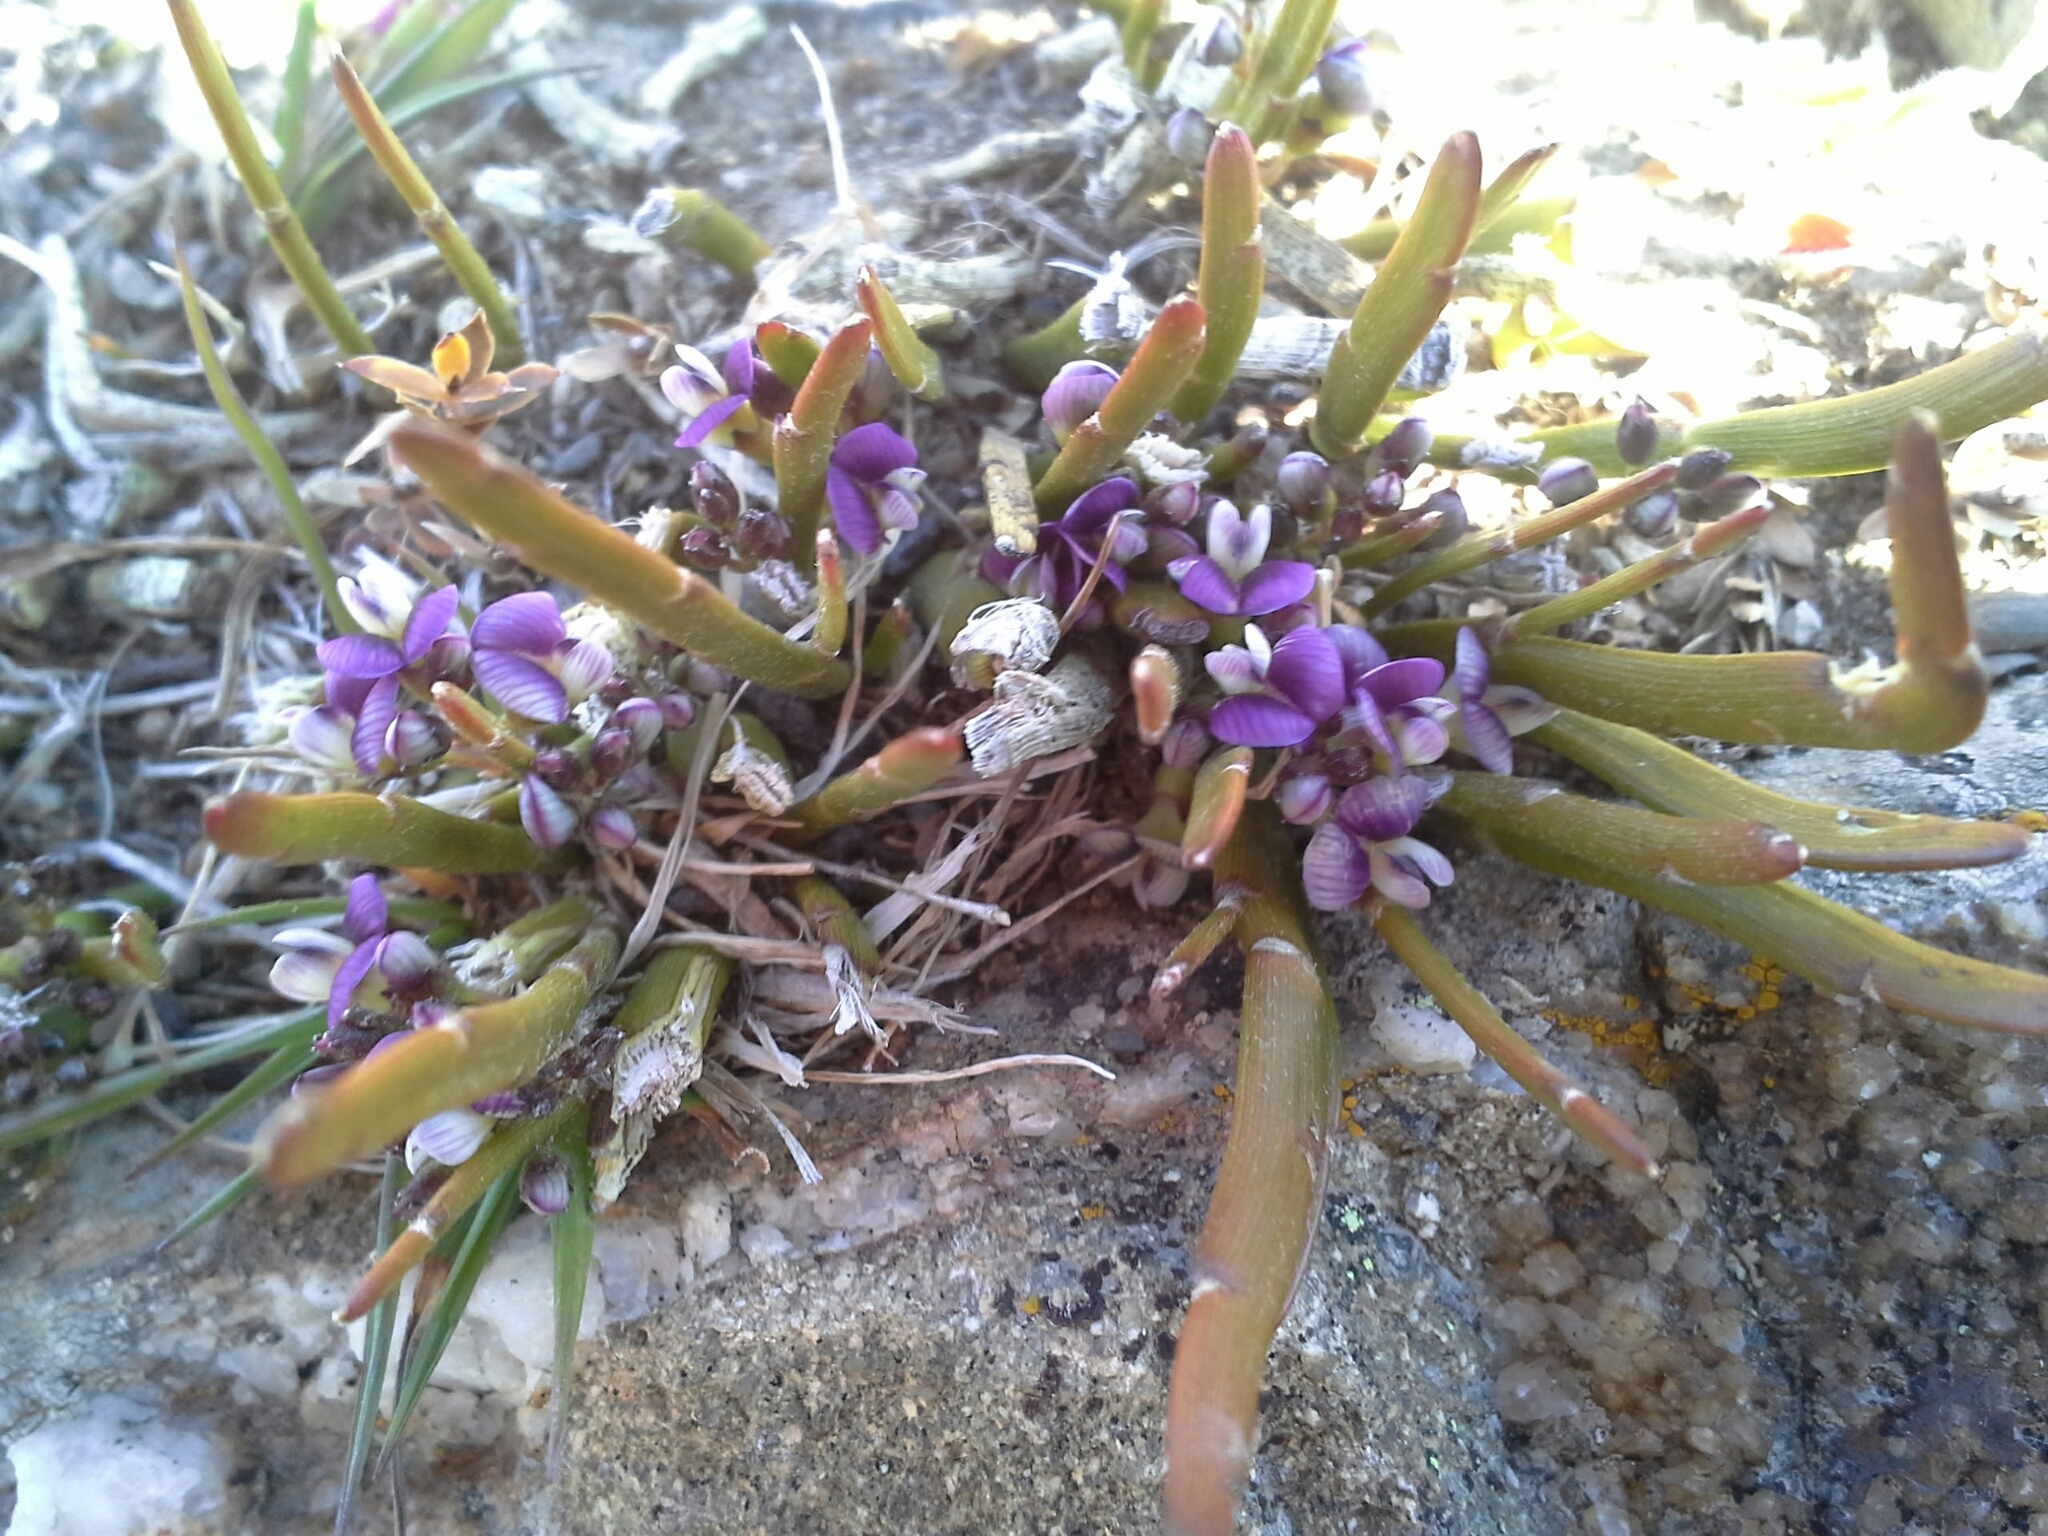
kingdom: Plantae
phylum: Tracheophyta
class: Magnoliopsida
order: Fabales
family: Fabaceae
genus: Carmichaelia
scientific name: Carmichaelia vexillata
